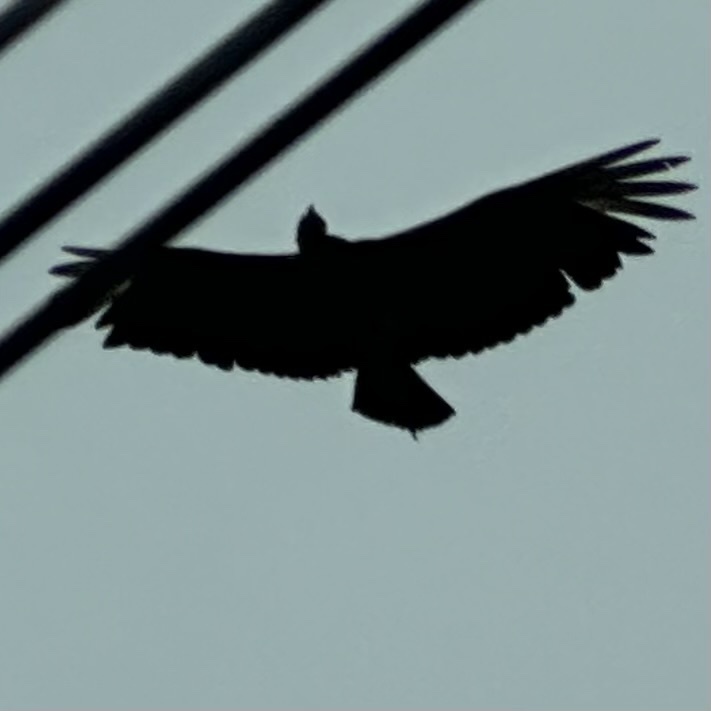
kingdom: Animalia
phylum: Chordata
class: Aves
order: Accipitriformes
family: Cathartidae
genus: Coragyps
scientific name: Coragyps atratus
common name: Black vulture
